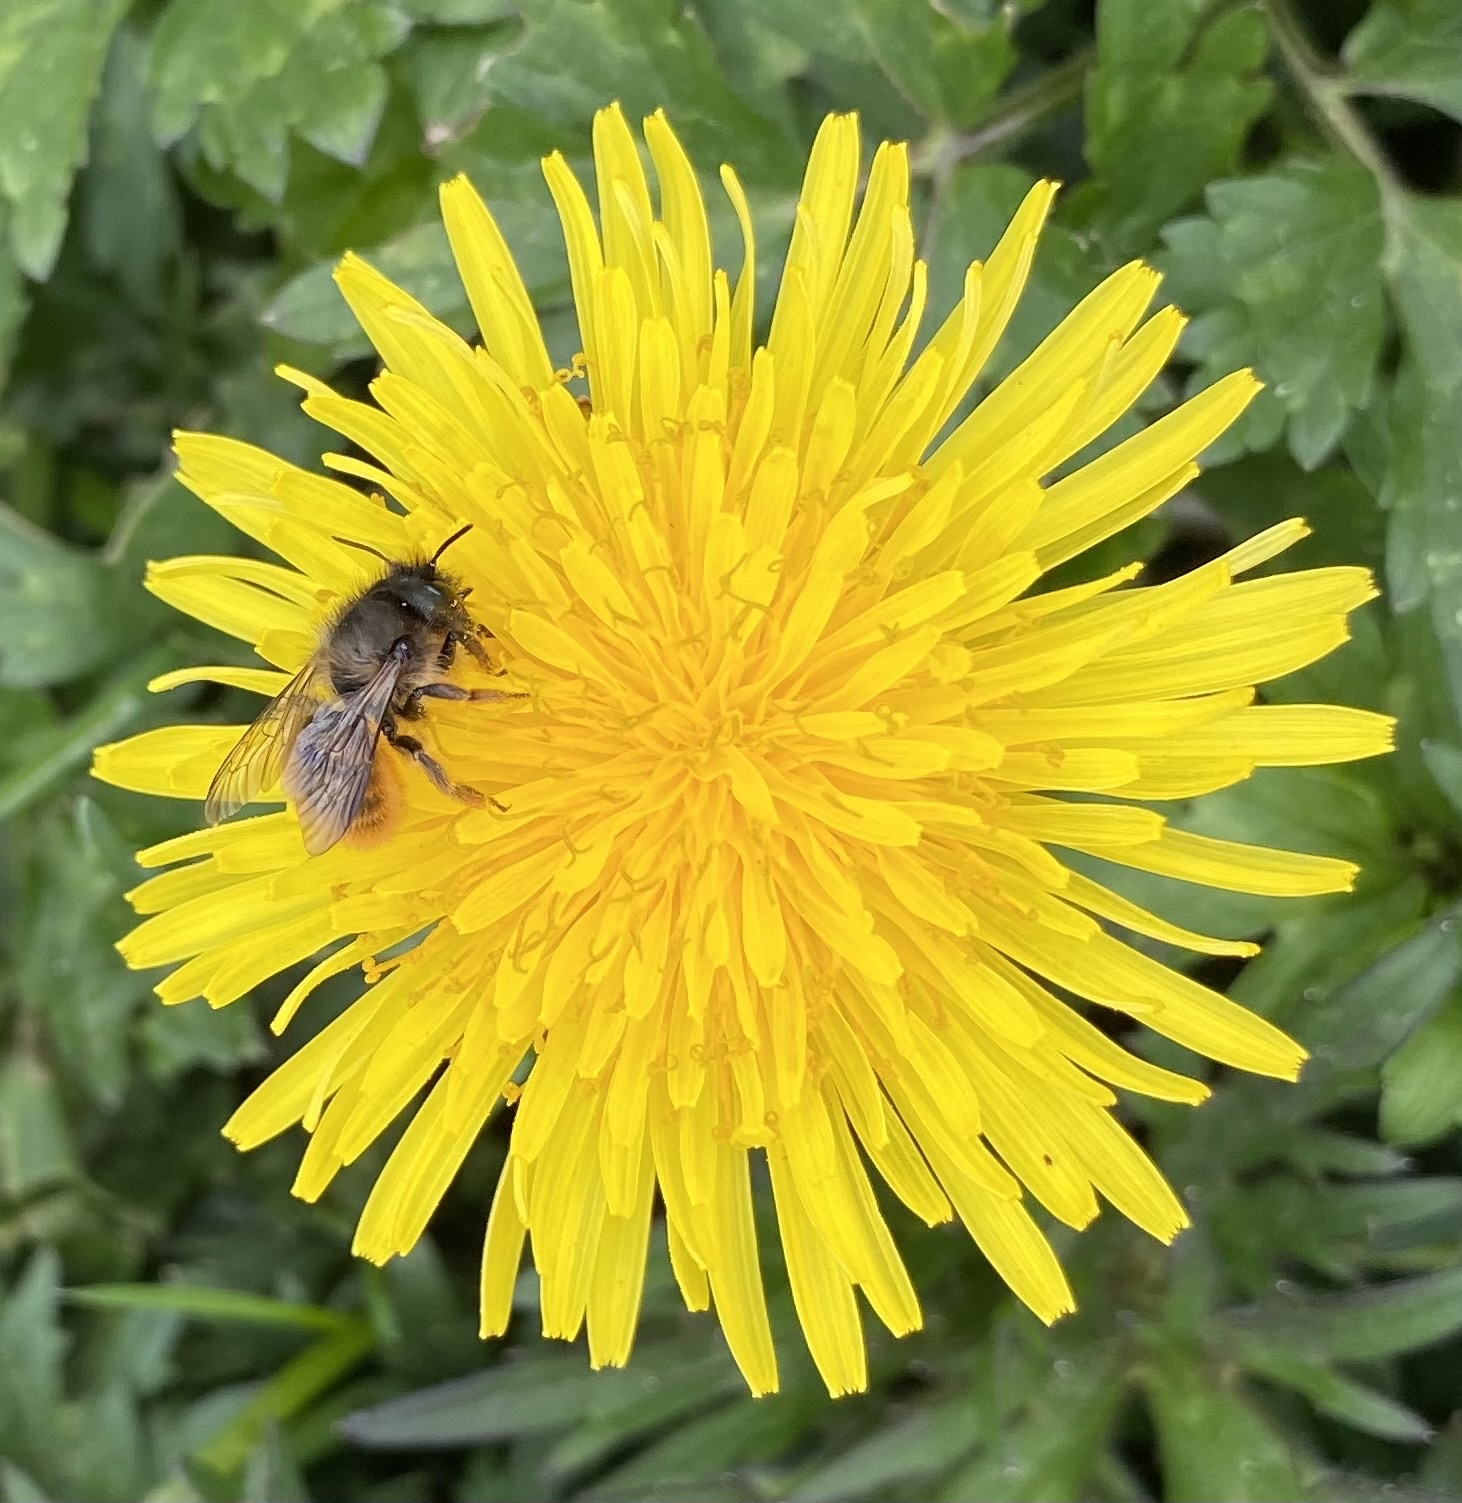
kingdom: Animalia
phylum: Arthropoda
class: Insecta
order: Hymenoptera
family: Megachilidae
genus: Osmia
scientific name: Osmia bicornis
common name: Red mason bee
